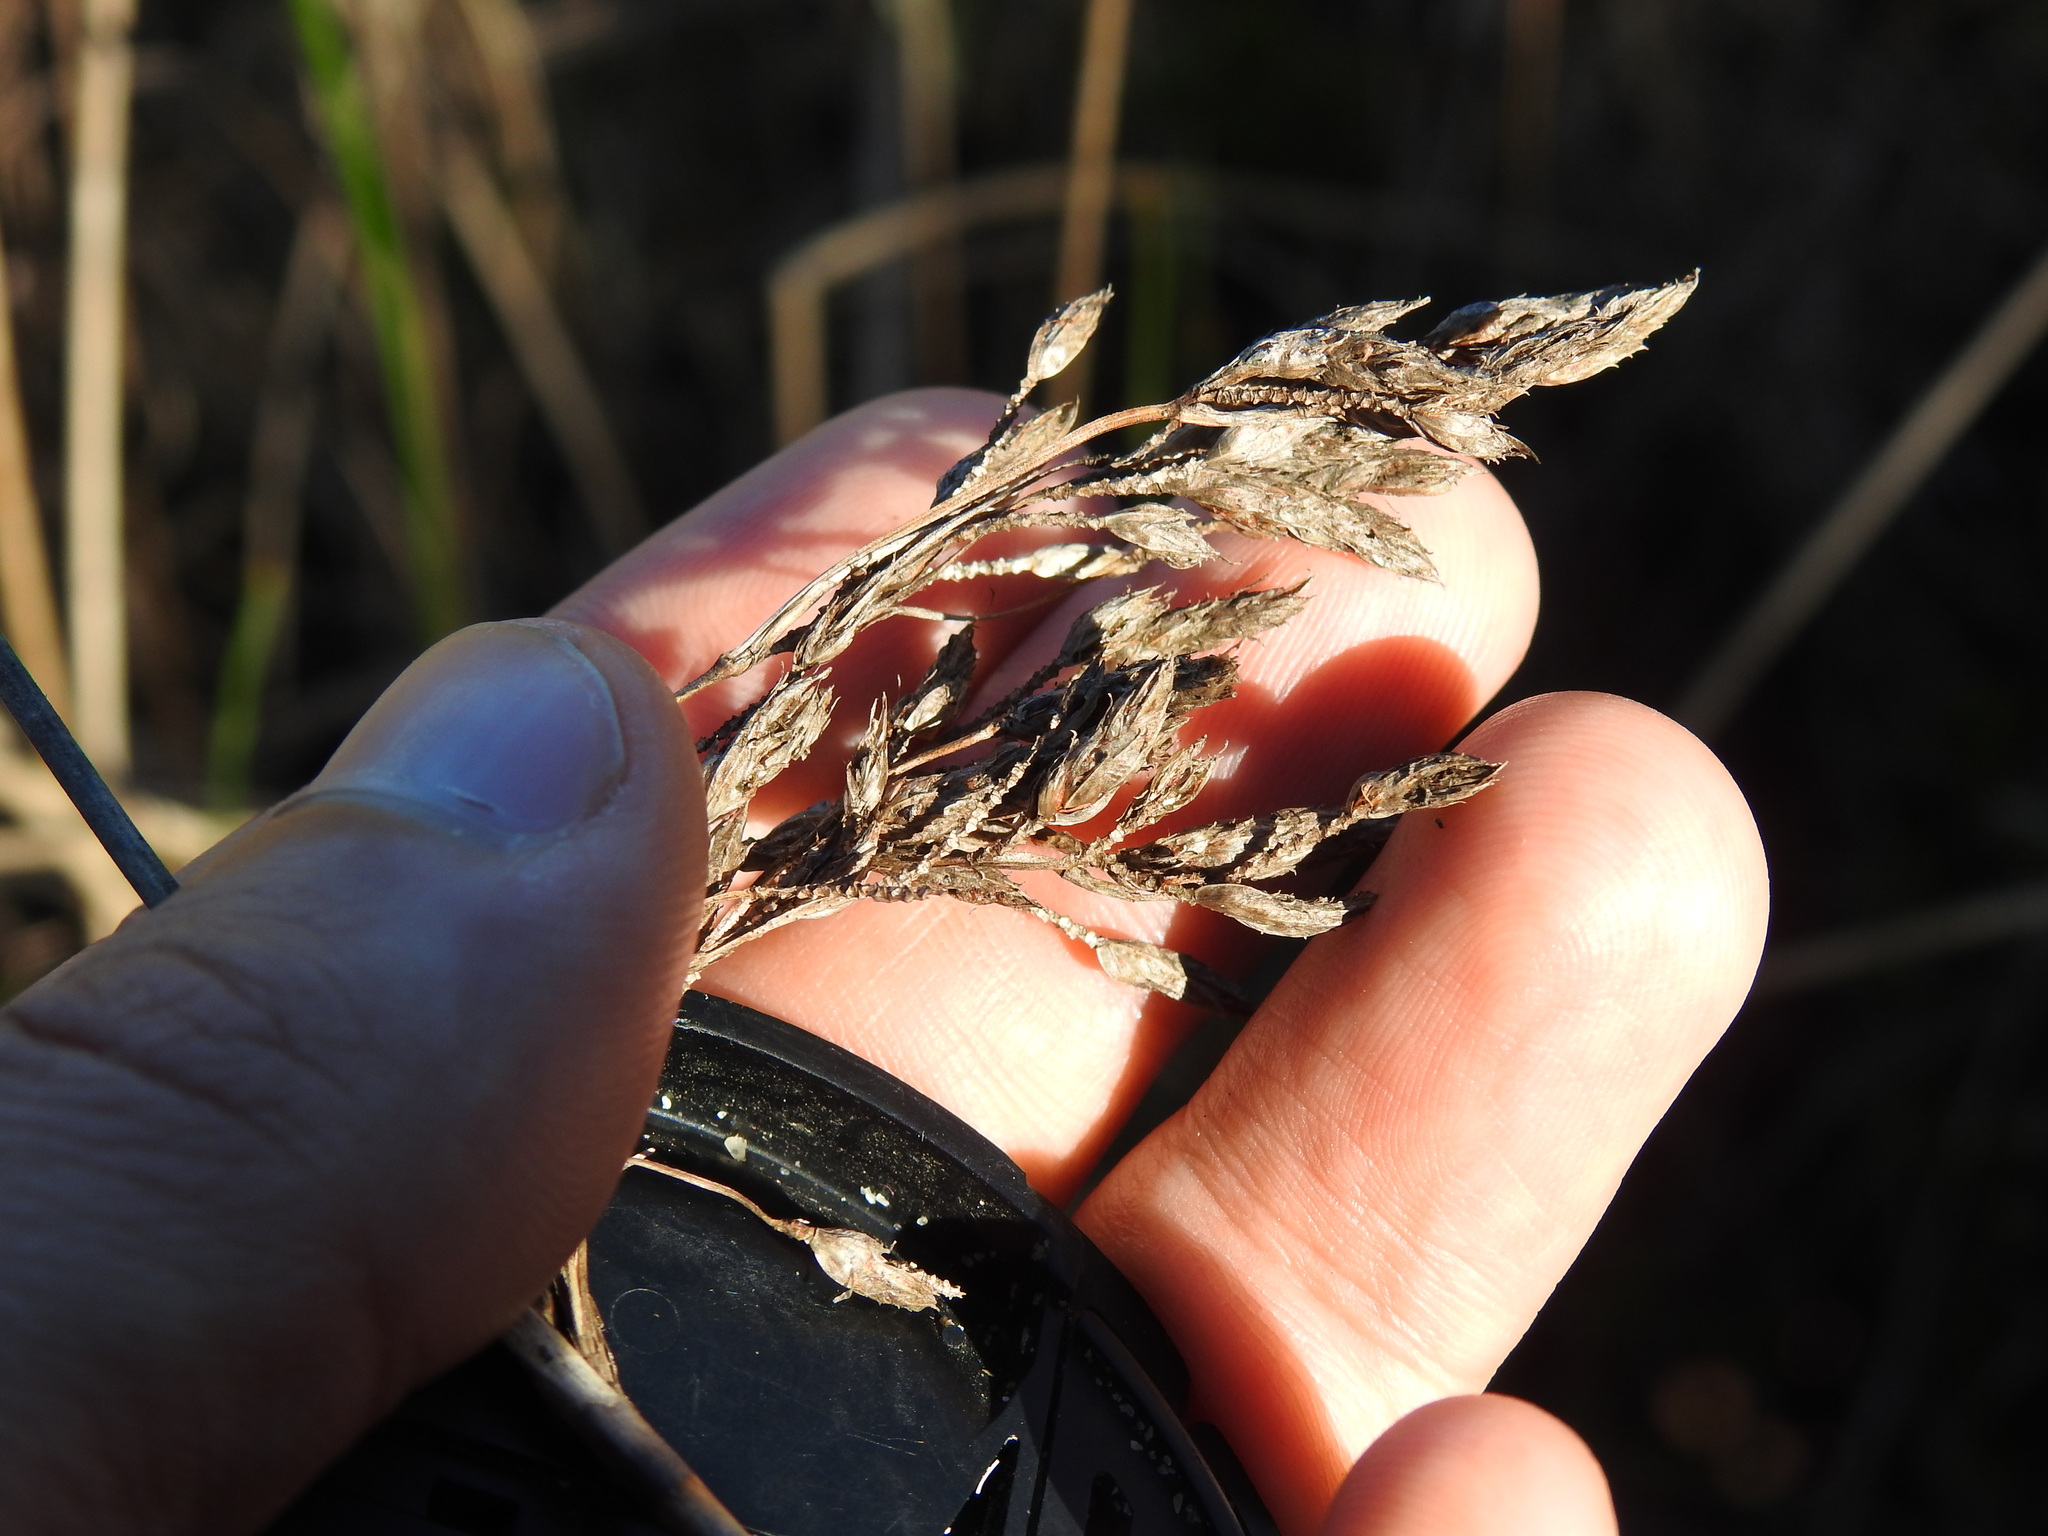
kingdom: Plantae
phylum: Tracheophyta
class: Liliopsida
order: Poales
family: Cyperaceae
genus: Schoenoplectus
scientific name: Schoenoplectus litoralis
